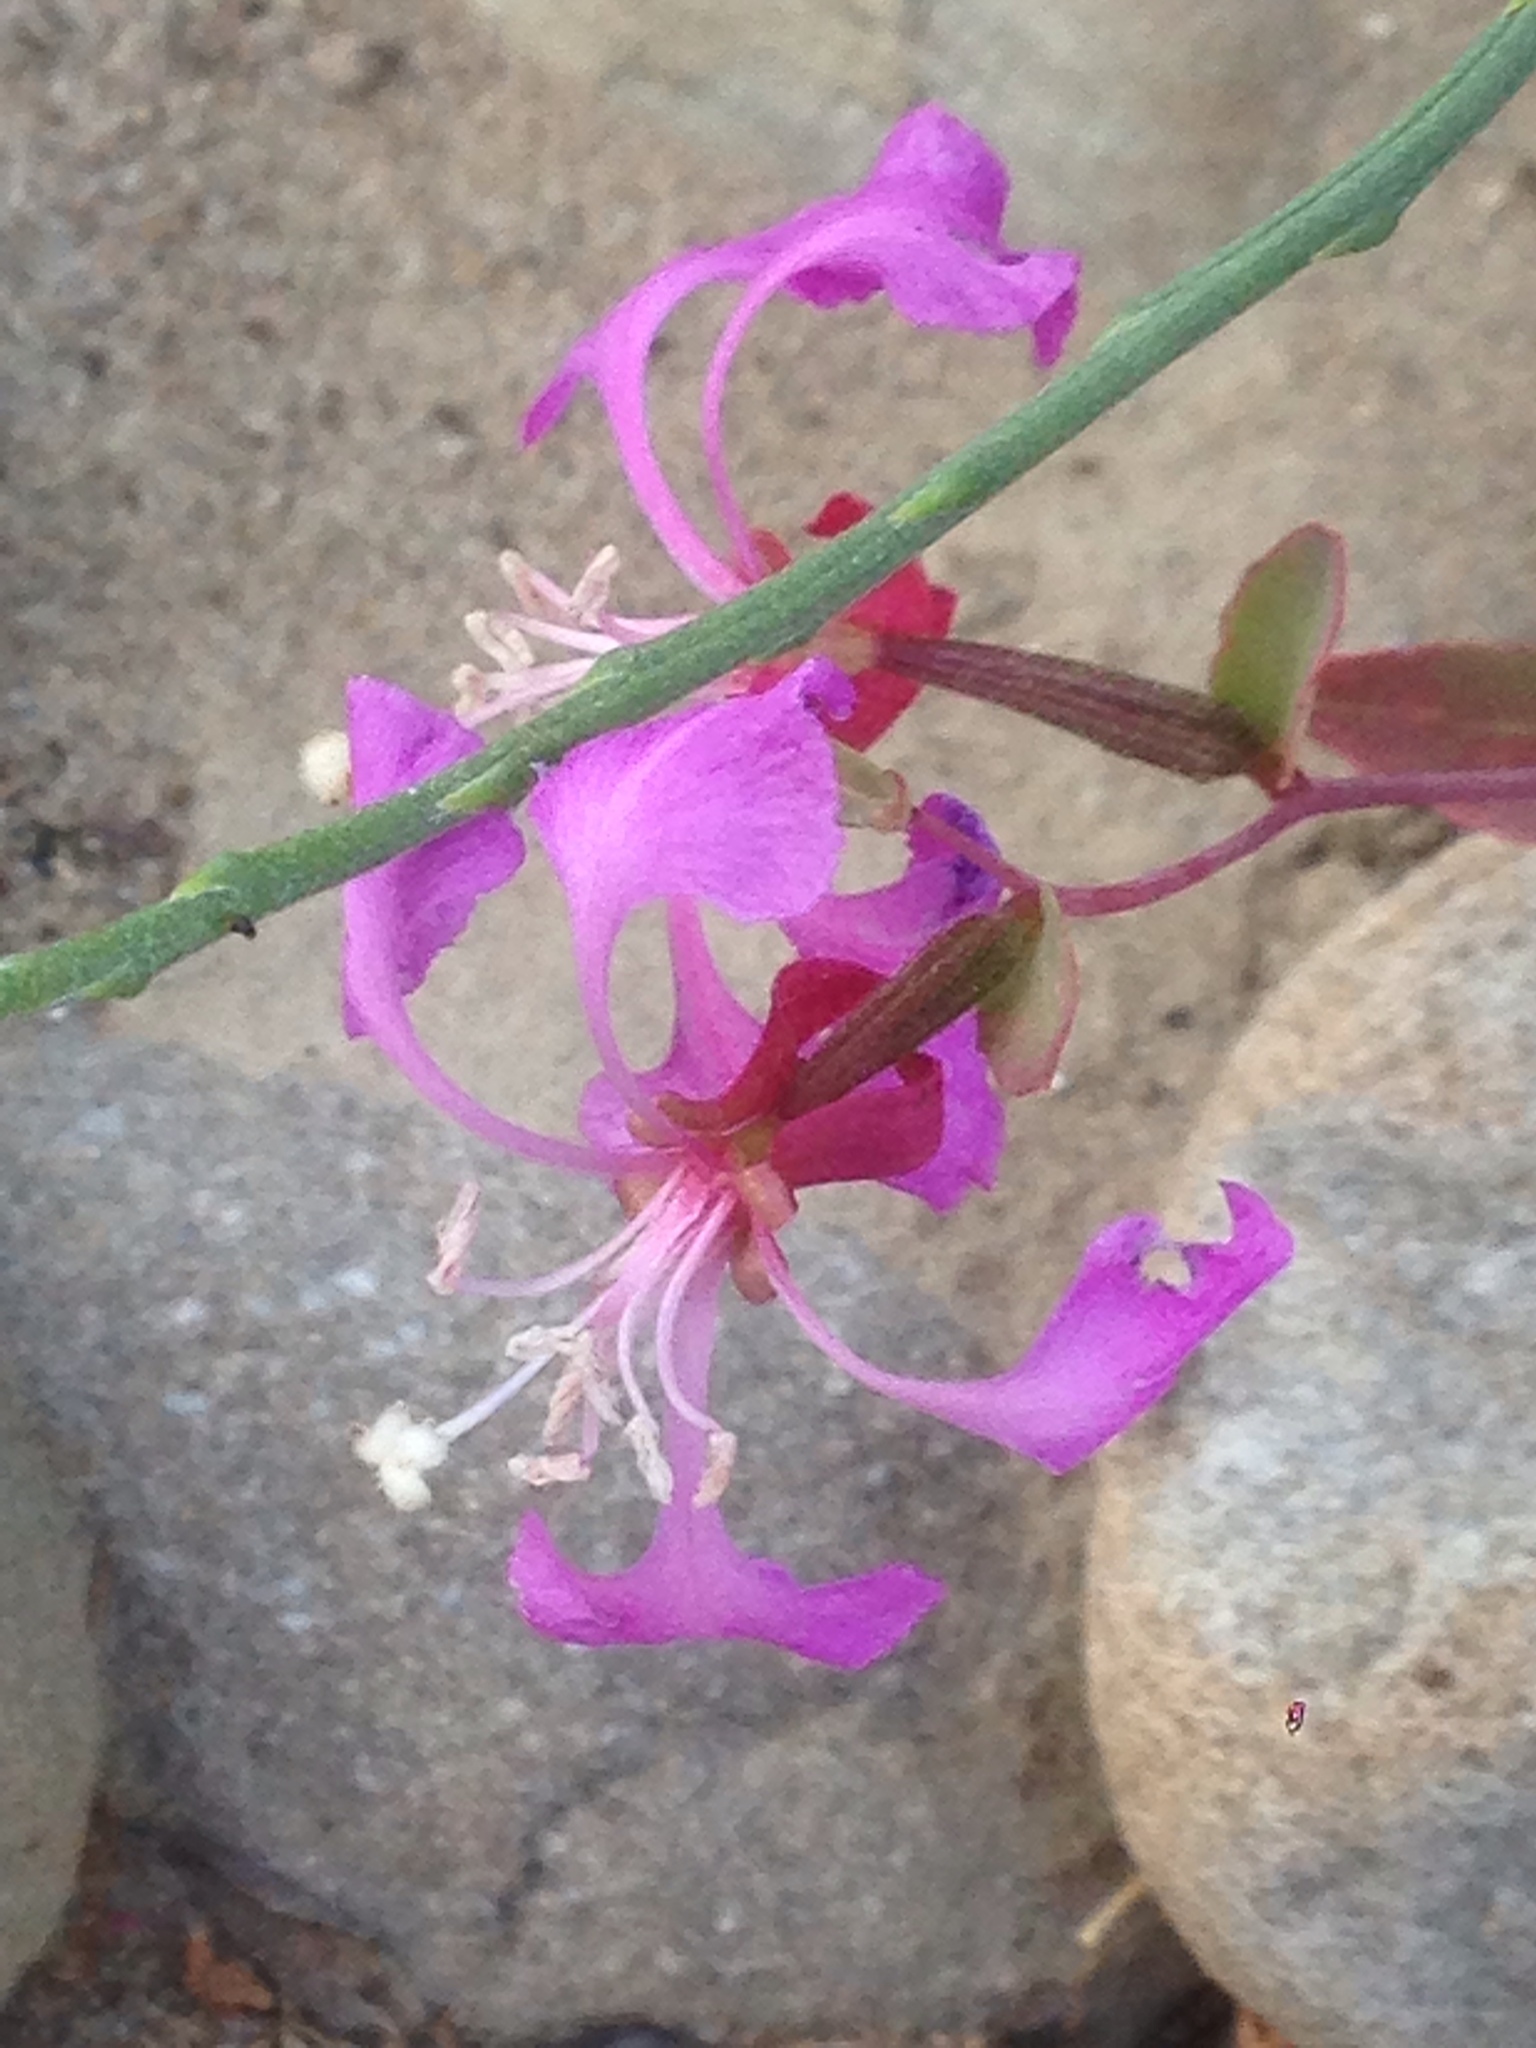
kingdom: Plantae
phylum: Tracheophyta
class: Magnoliopsida
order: Myrtales
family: Onagraceae
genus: Clarkia
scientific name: Clarkia unguiculata
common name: Clarkia
